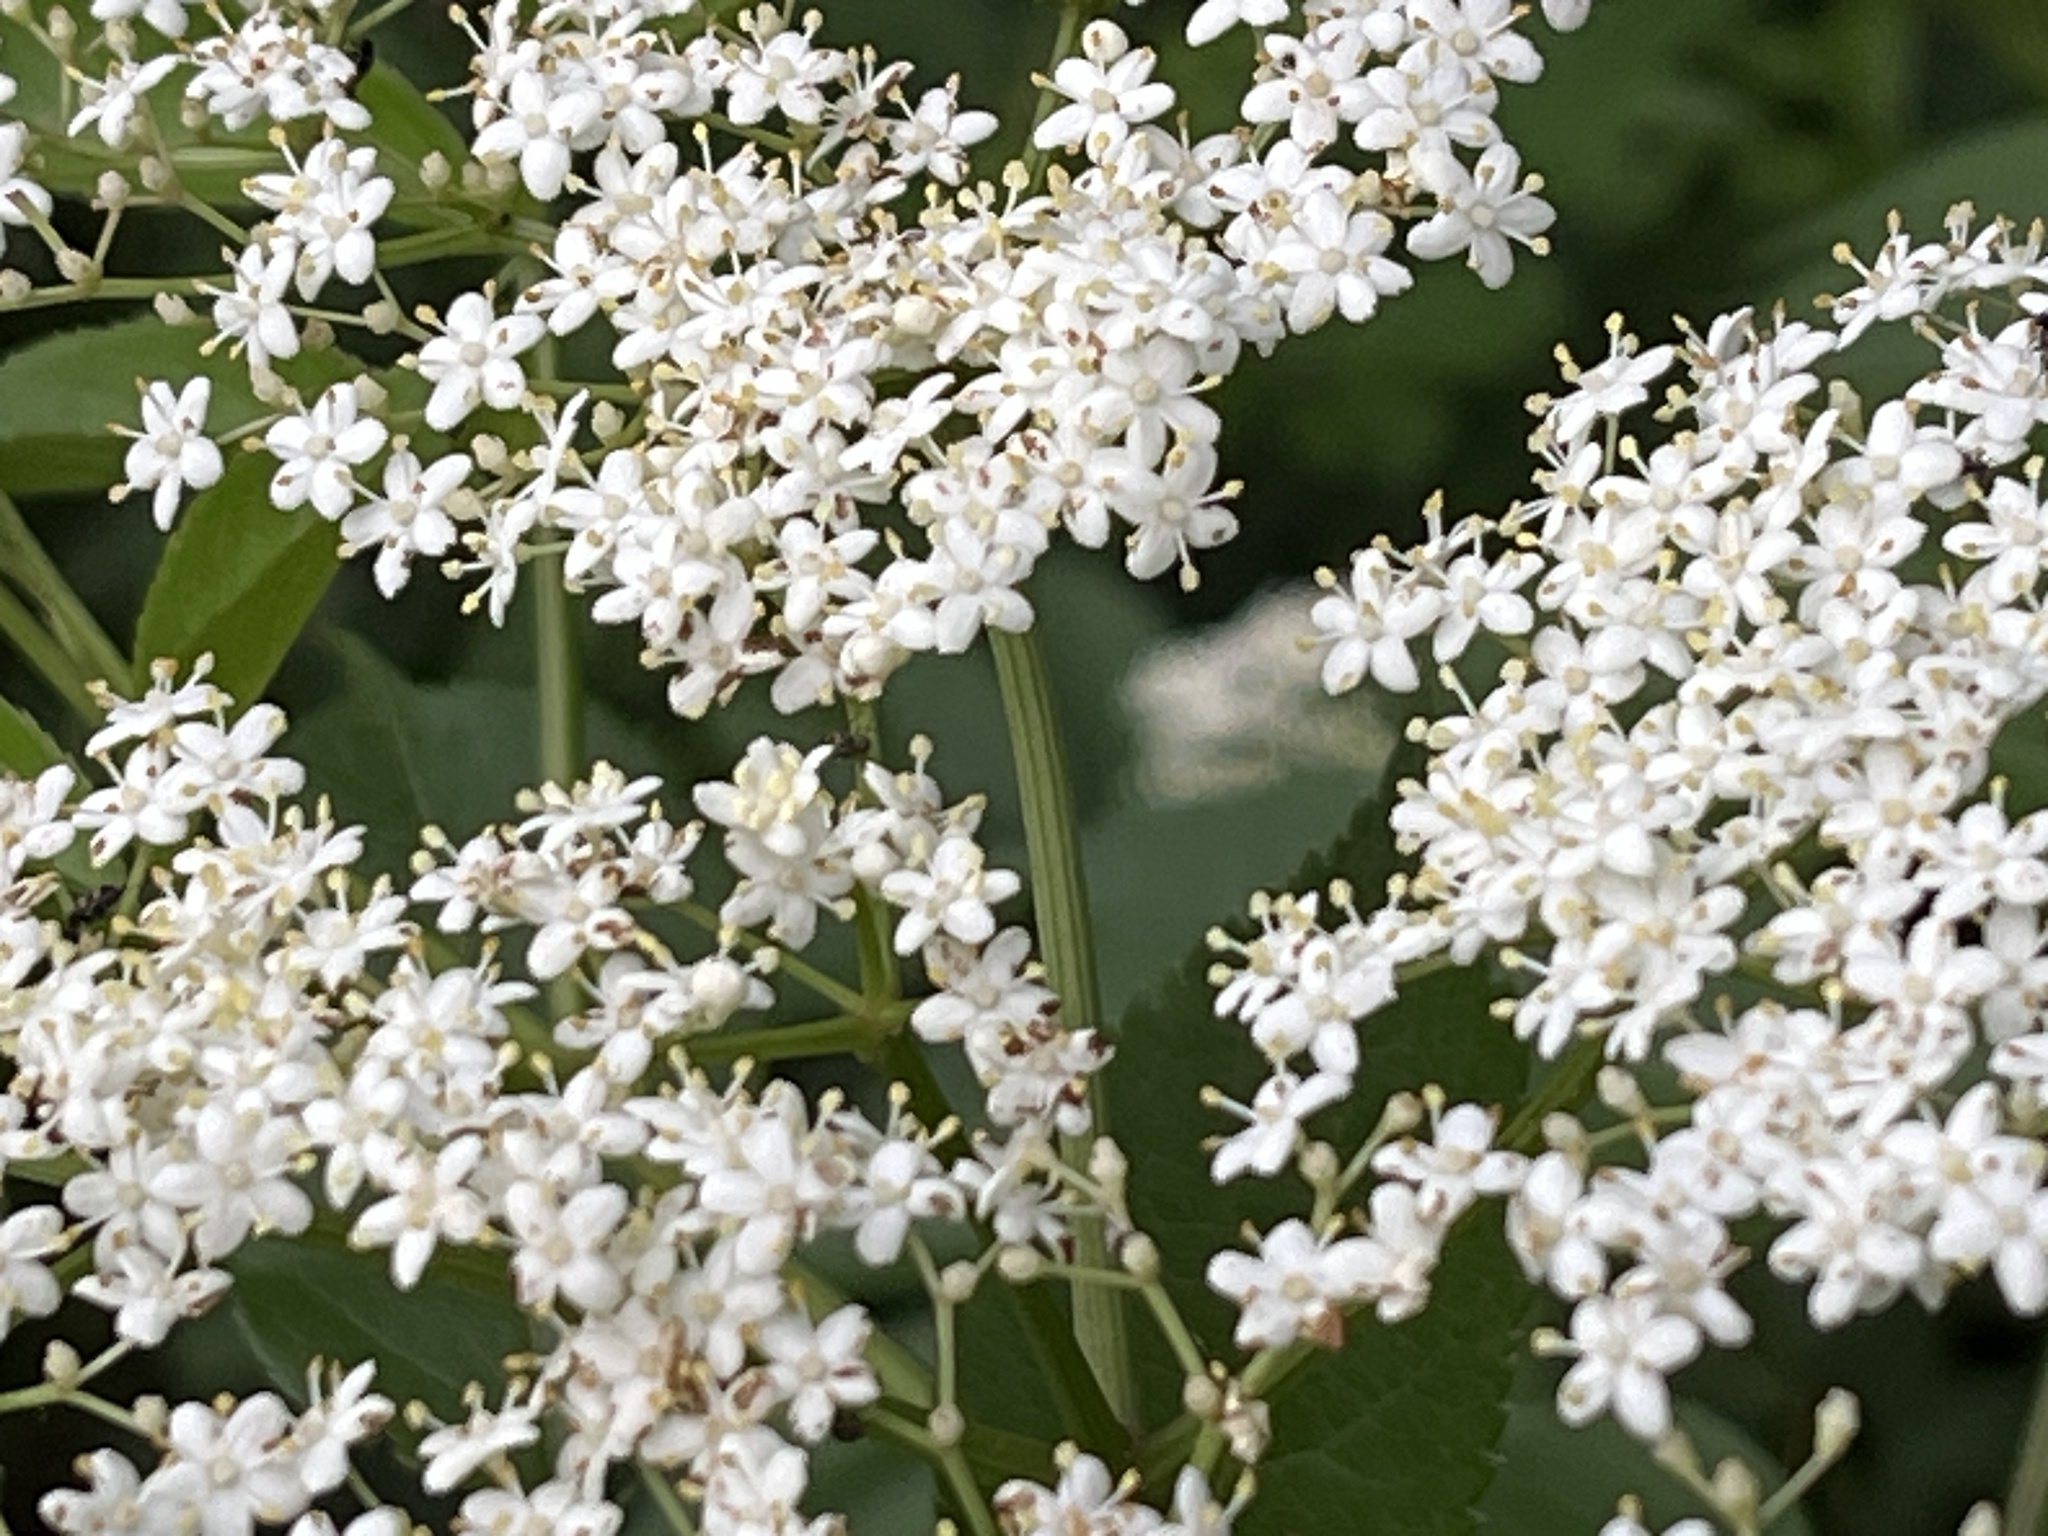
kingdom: Plantae
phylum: Tracheophyta
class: Magnoliopsida
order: Dipsacales
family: Viburnaceae
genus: Sambucus
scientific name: Sambucus canadensis
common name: American elder
